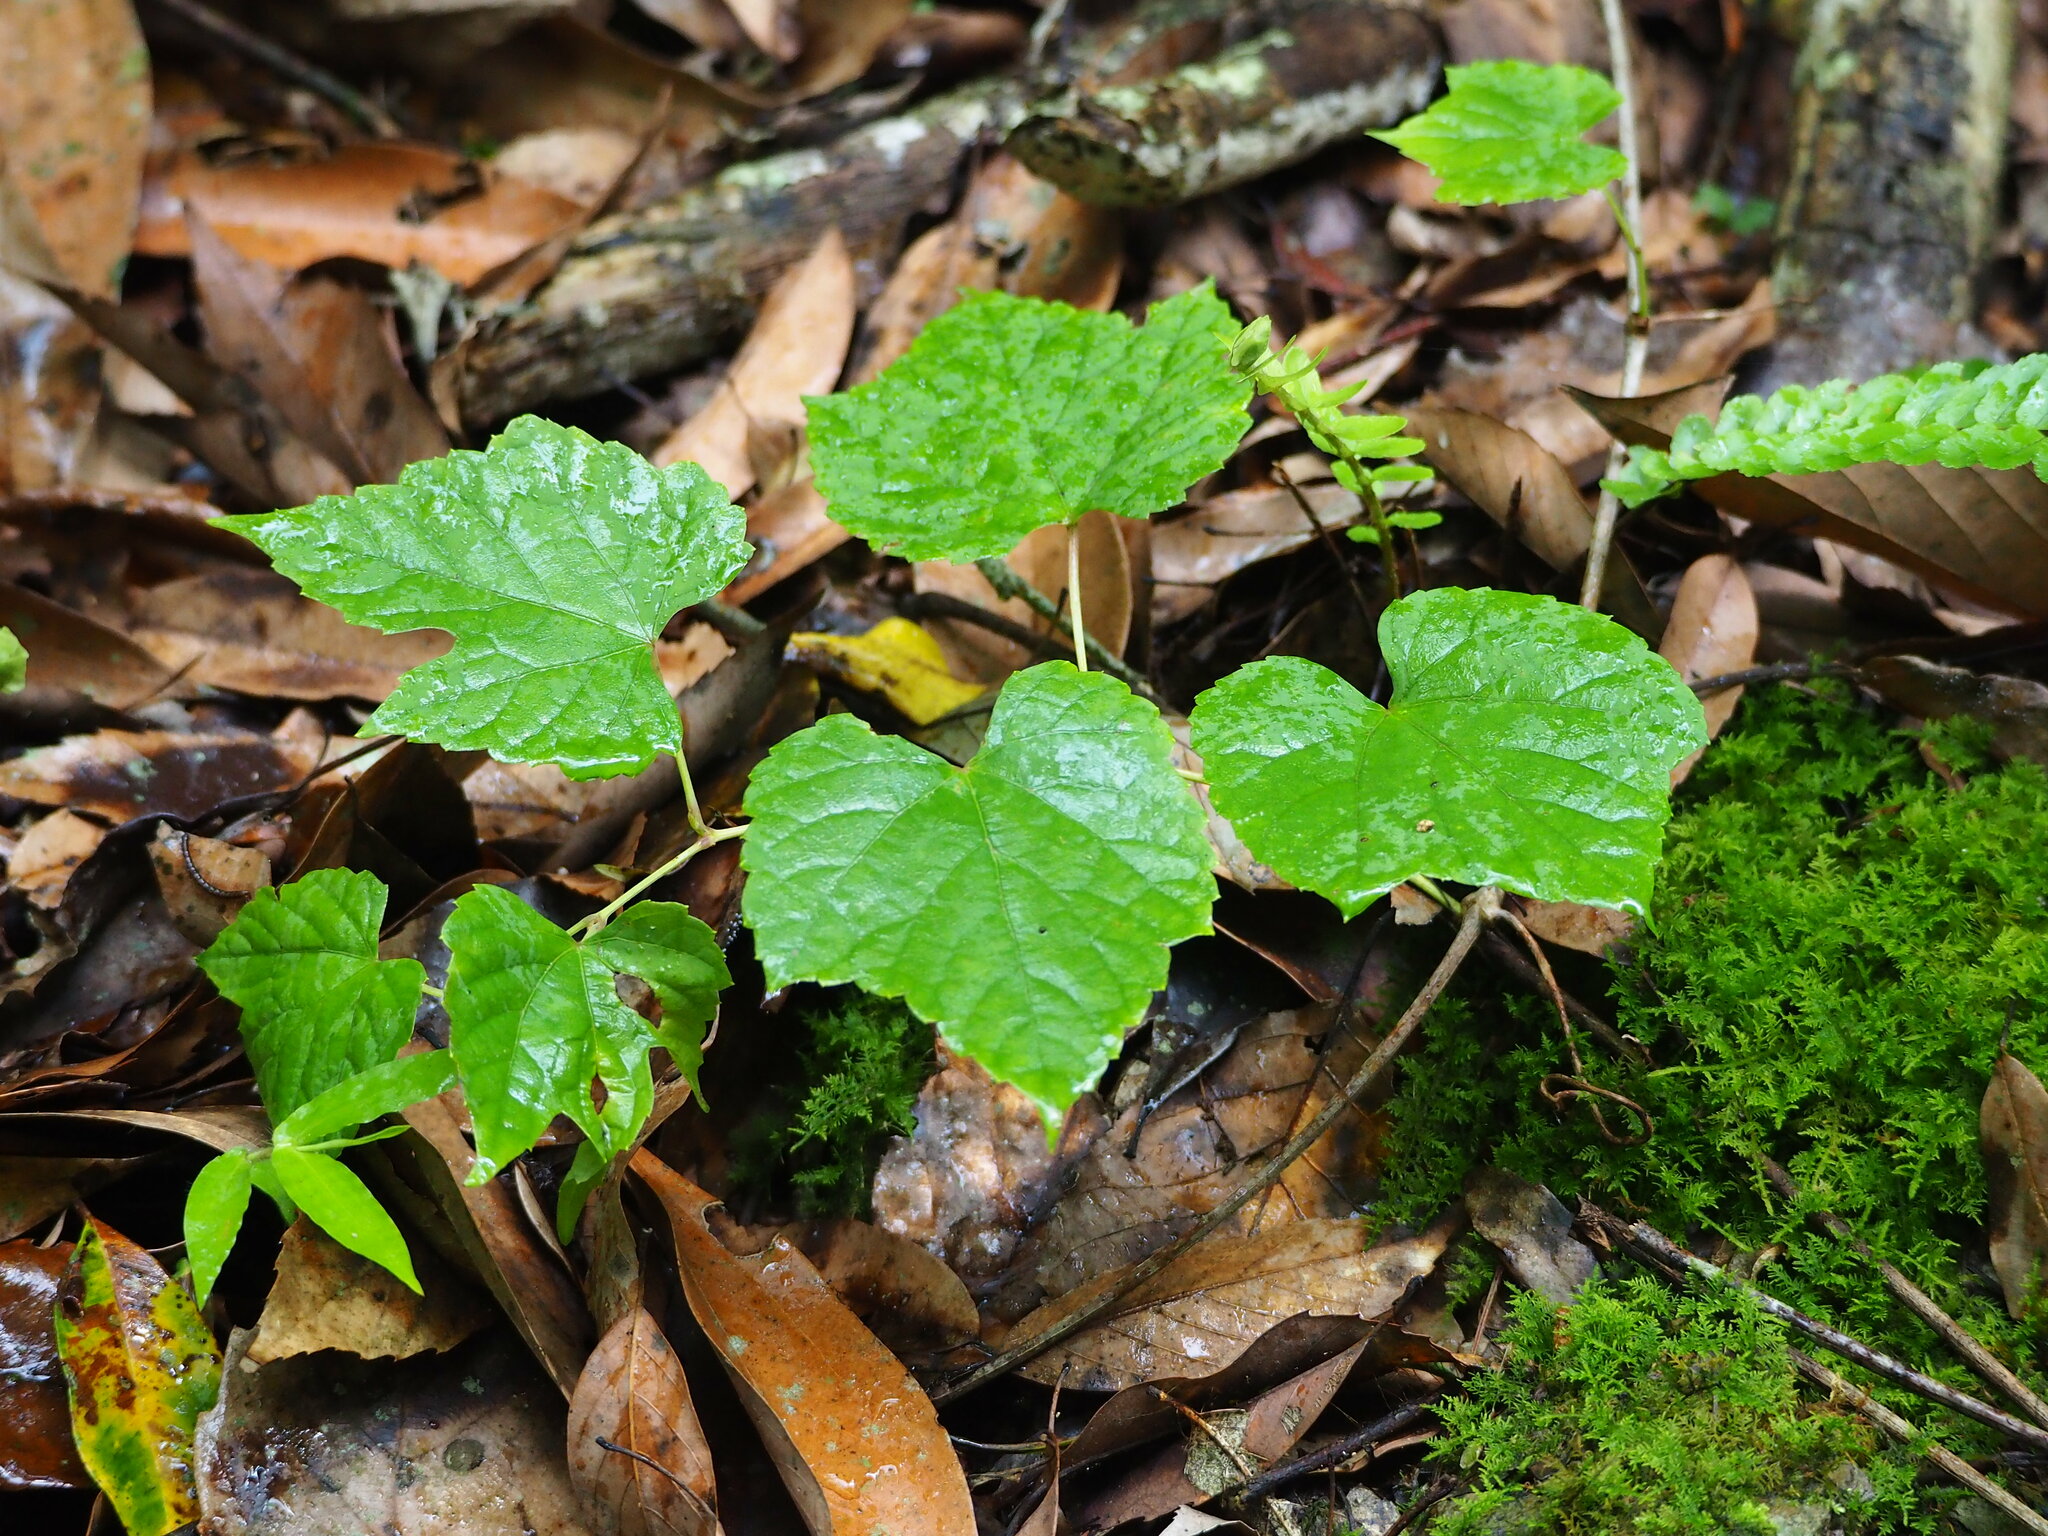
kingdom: Plantae
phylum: Tracheophyta
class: Magnoliopsida
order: Vitales
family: Vitaceae
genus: Ampelopsis
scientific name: Ampelopsis glandulosa
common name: Amur peppervine
